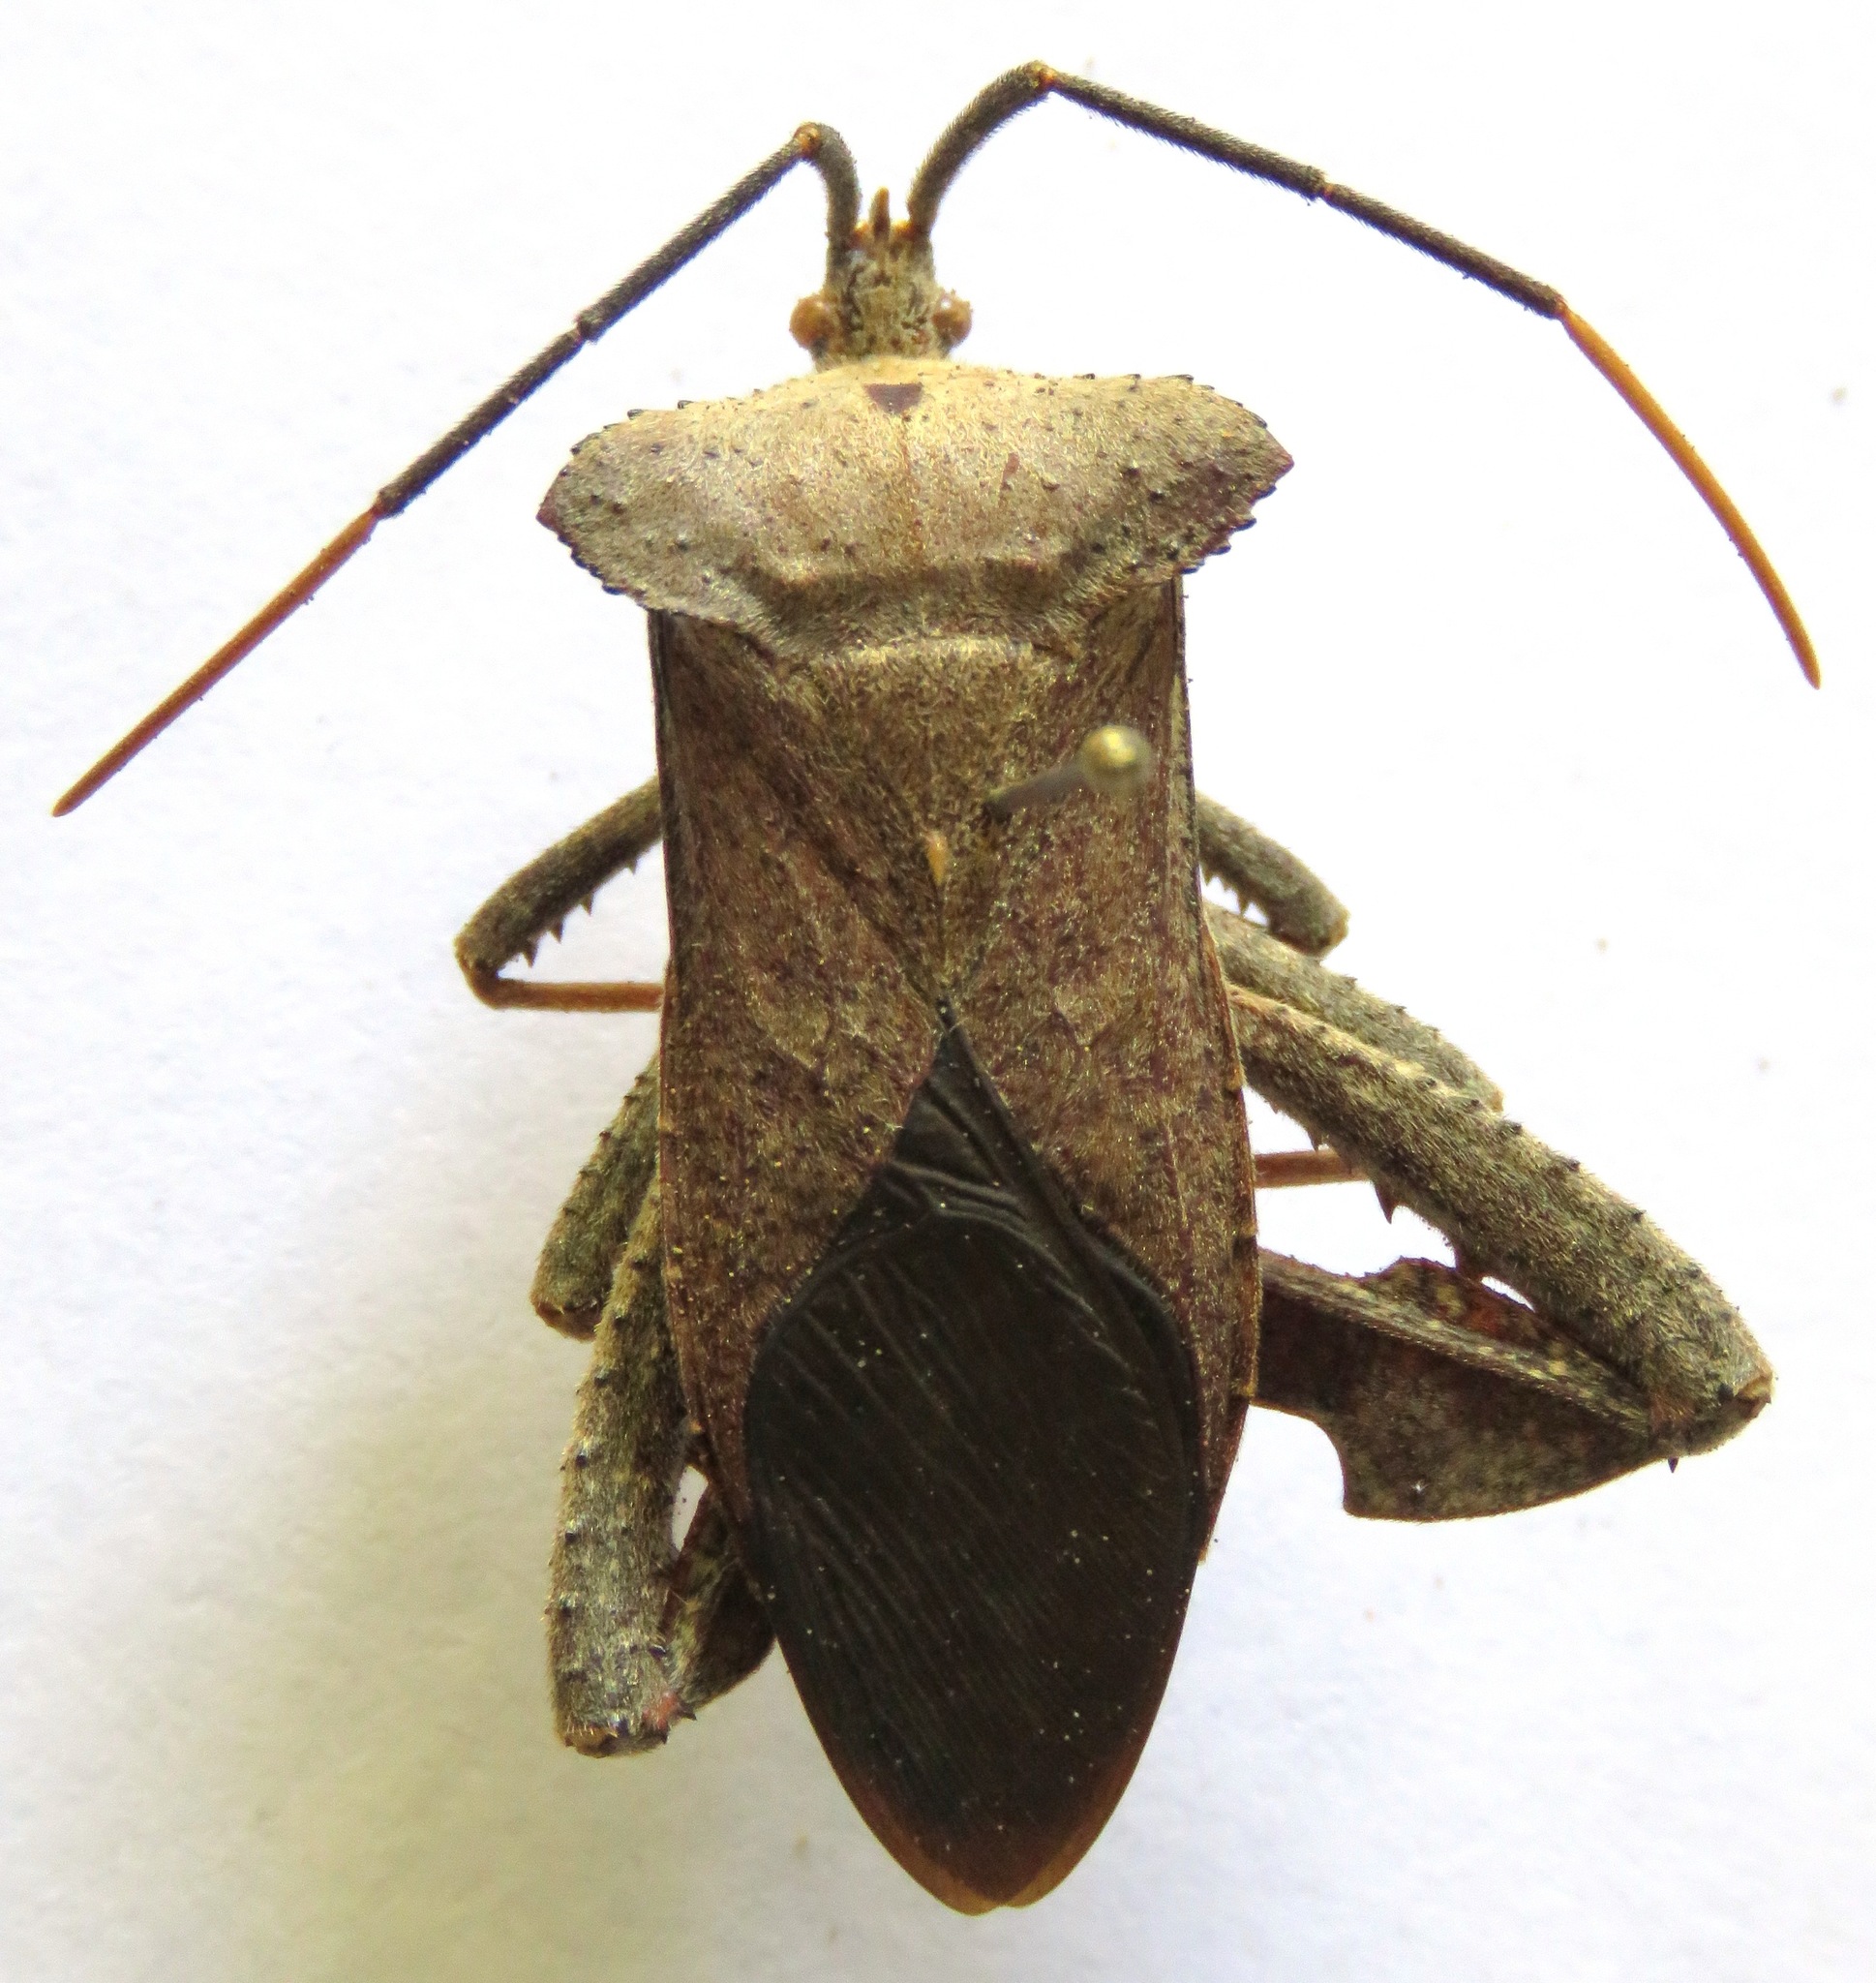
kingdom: Animalia
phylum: Arthropoda
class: Insecta
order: Hemiptera
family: Coreidae
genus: Acanthocephala
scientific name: Acanthocephala alata
